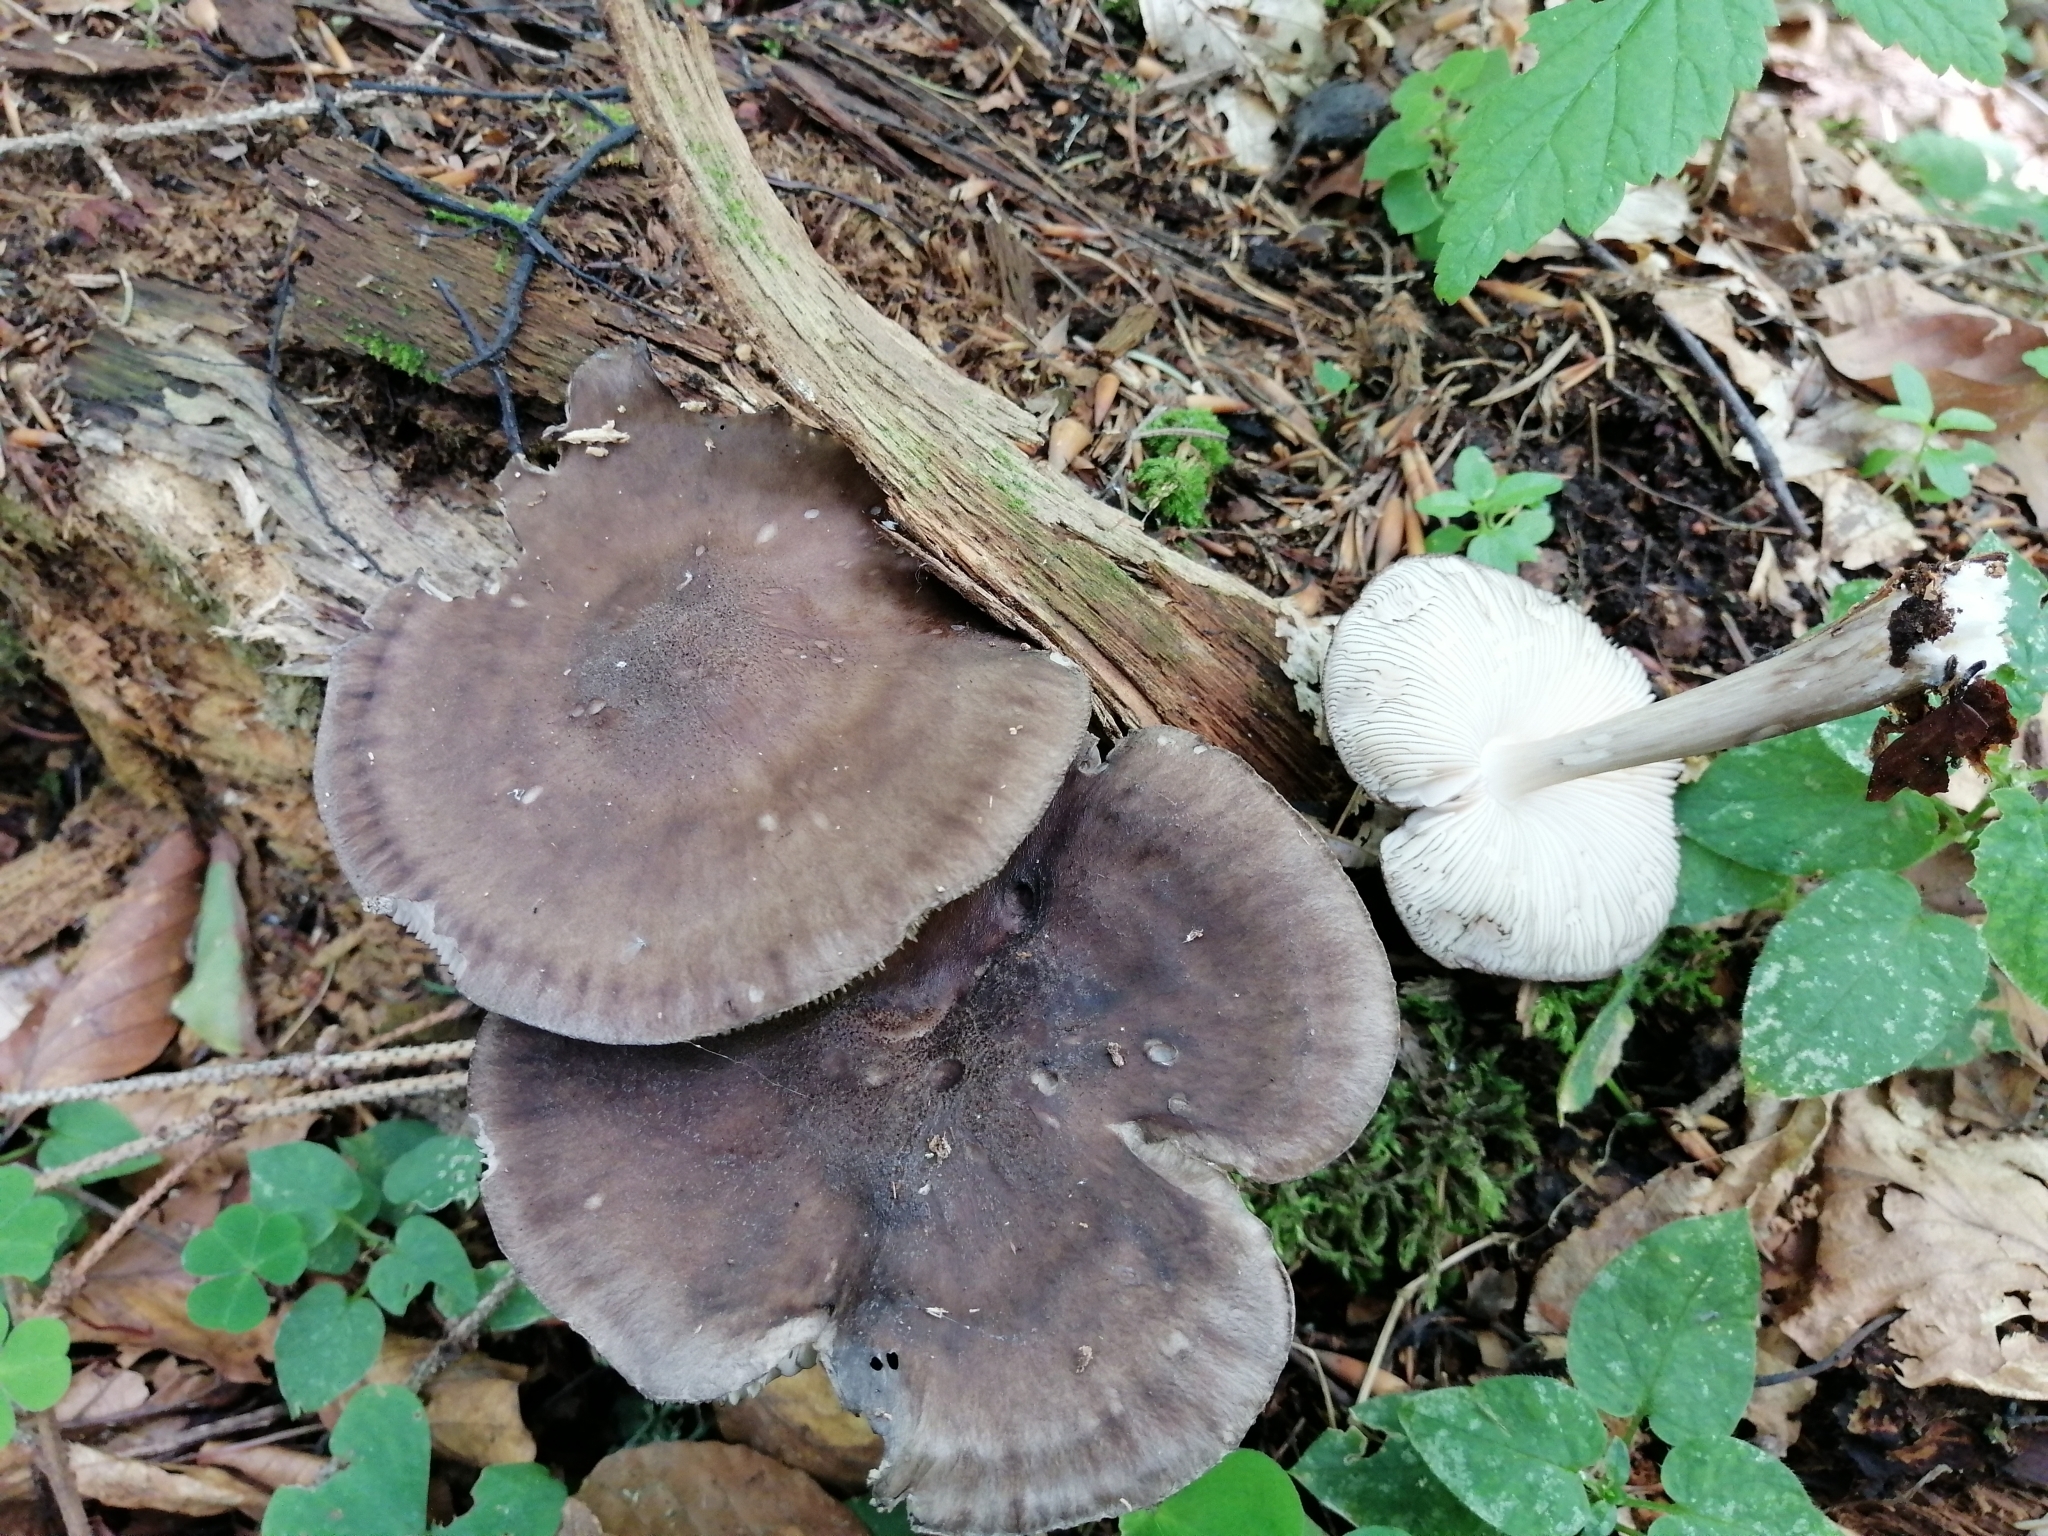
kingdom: Fungi
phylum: Basidiomycota
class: Agaricomycetes
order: Agaricales
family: Pluteaceae
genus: Pluteus
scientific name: Pluteus atromarginatus
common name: Blackedged shield
